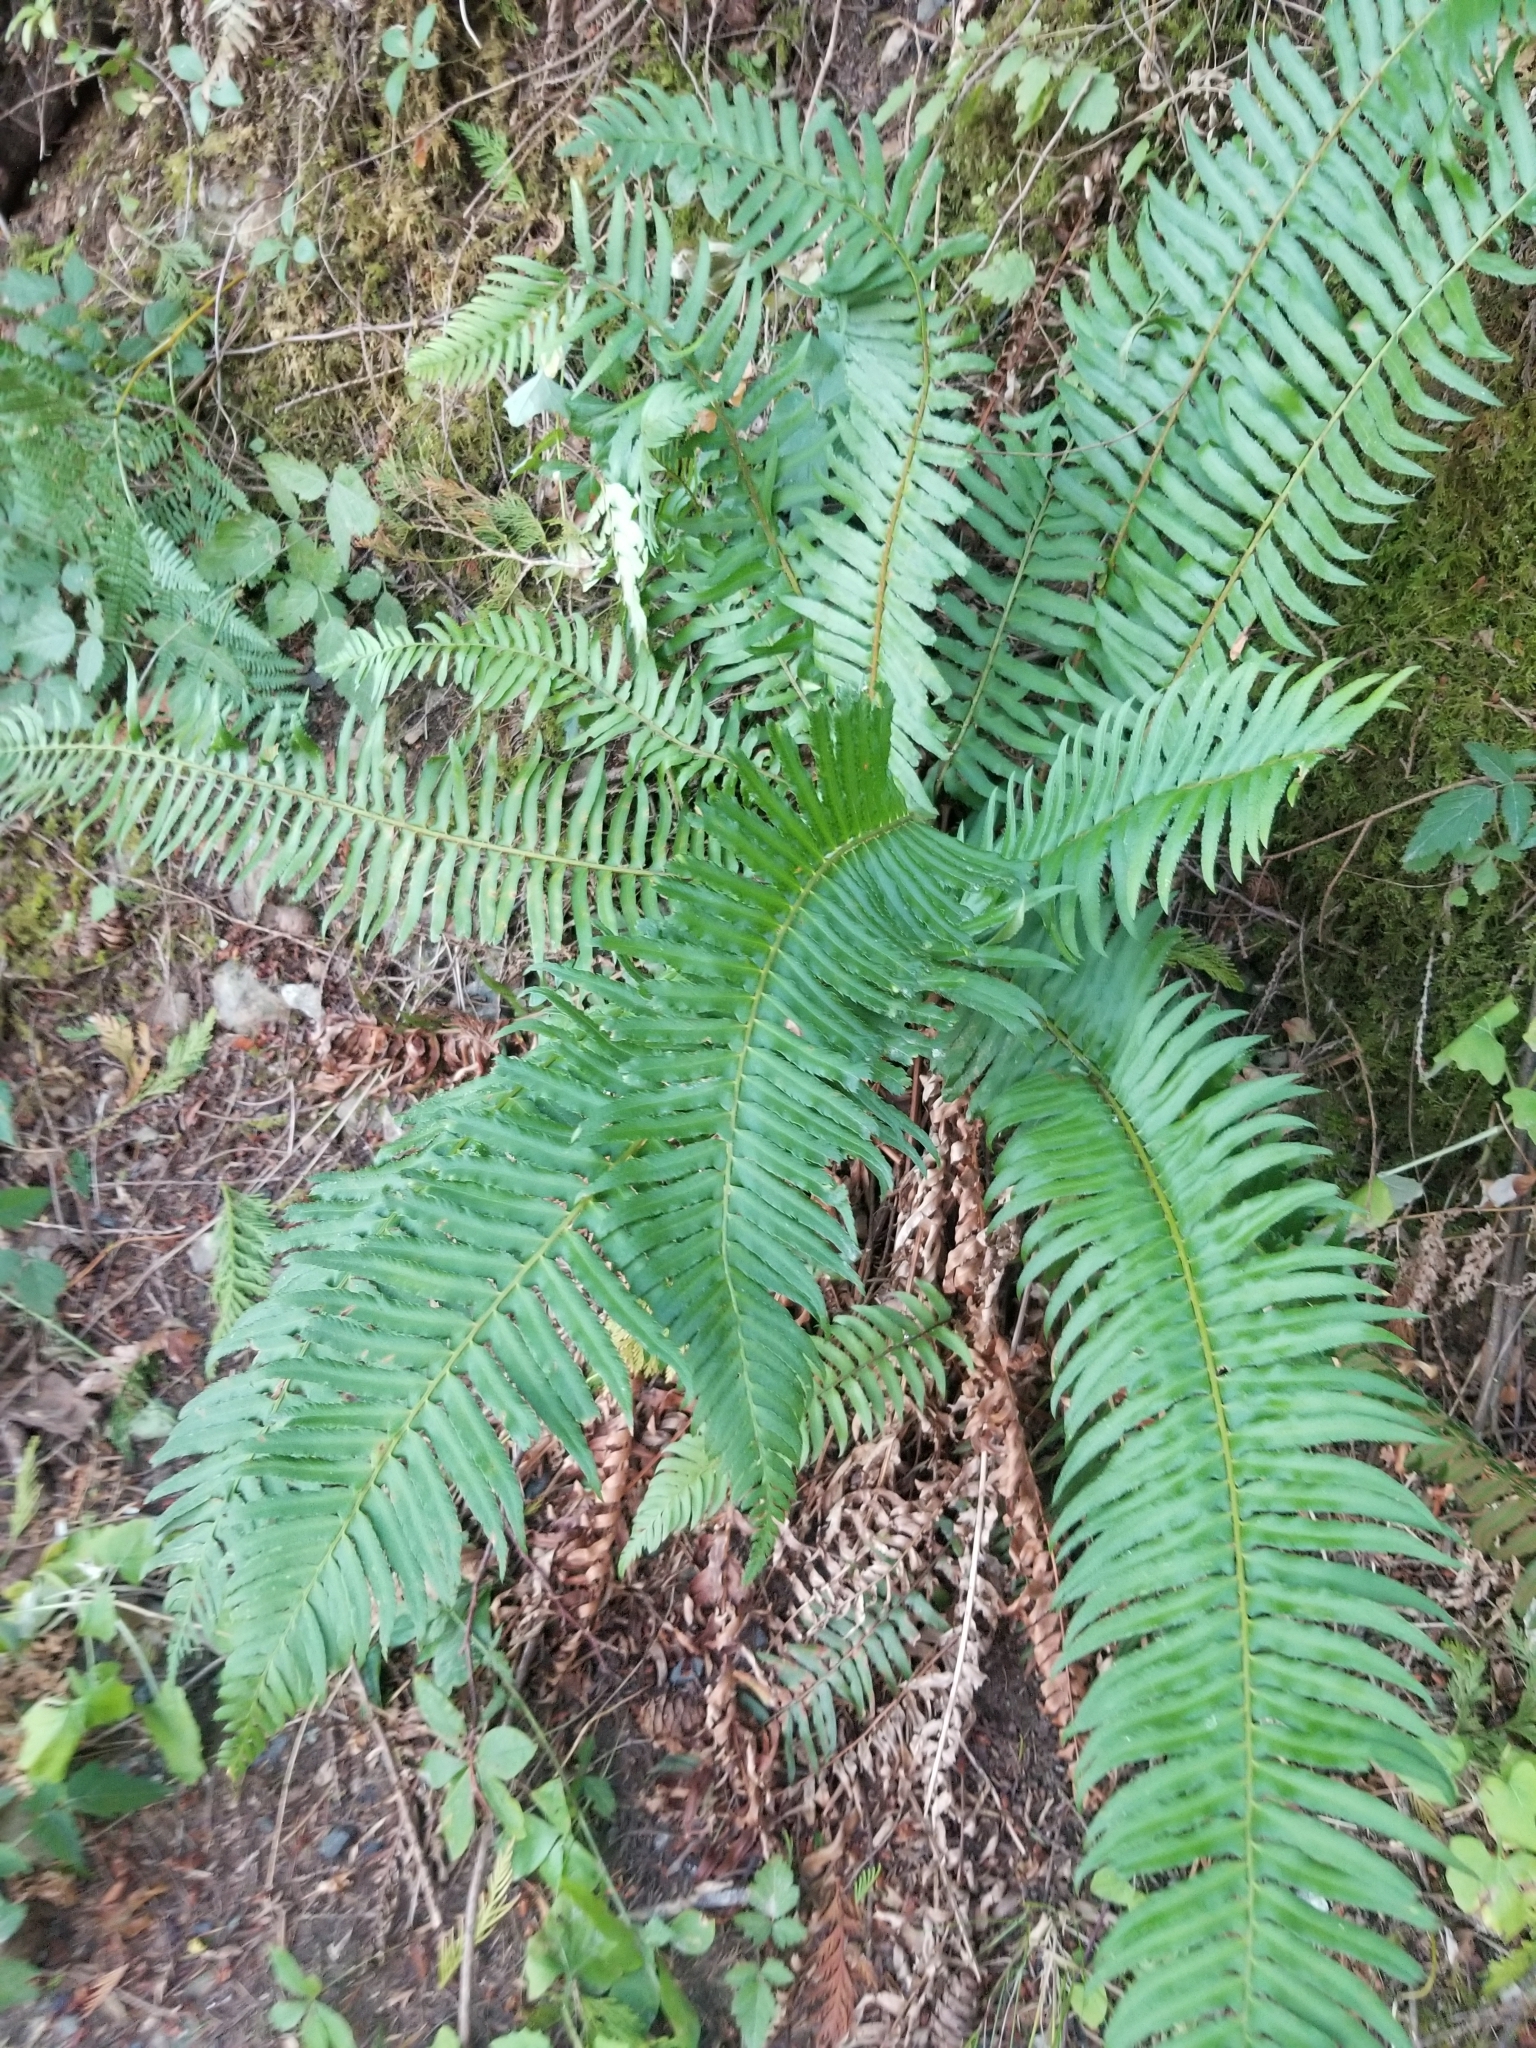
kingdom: Plantae
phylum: Tracheophyta
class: Polypodiopsida
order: Polypodiales
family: Dryopteridaceae
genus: Polystichum
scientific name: Polystichum munitum
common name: Western sword-fern
